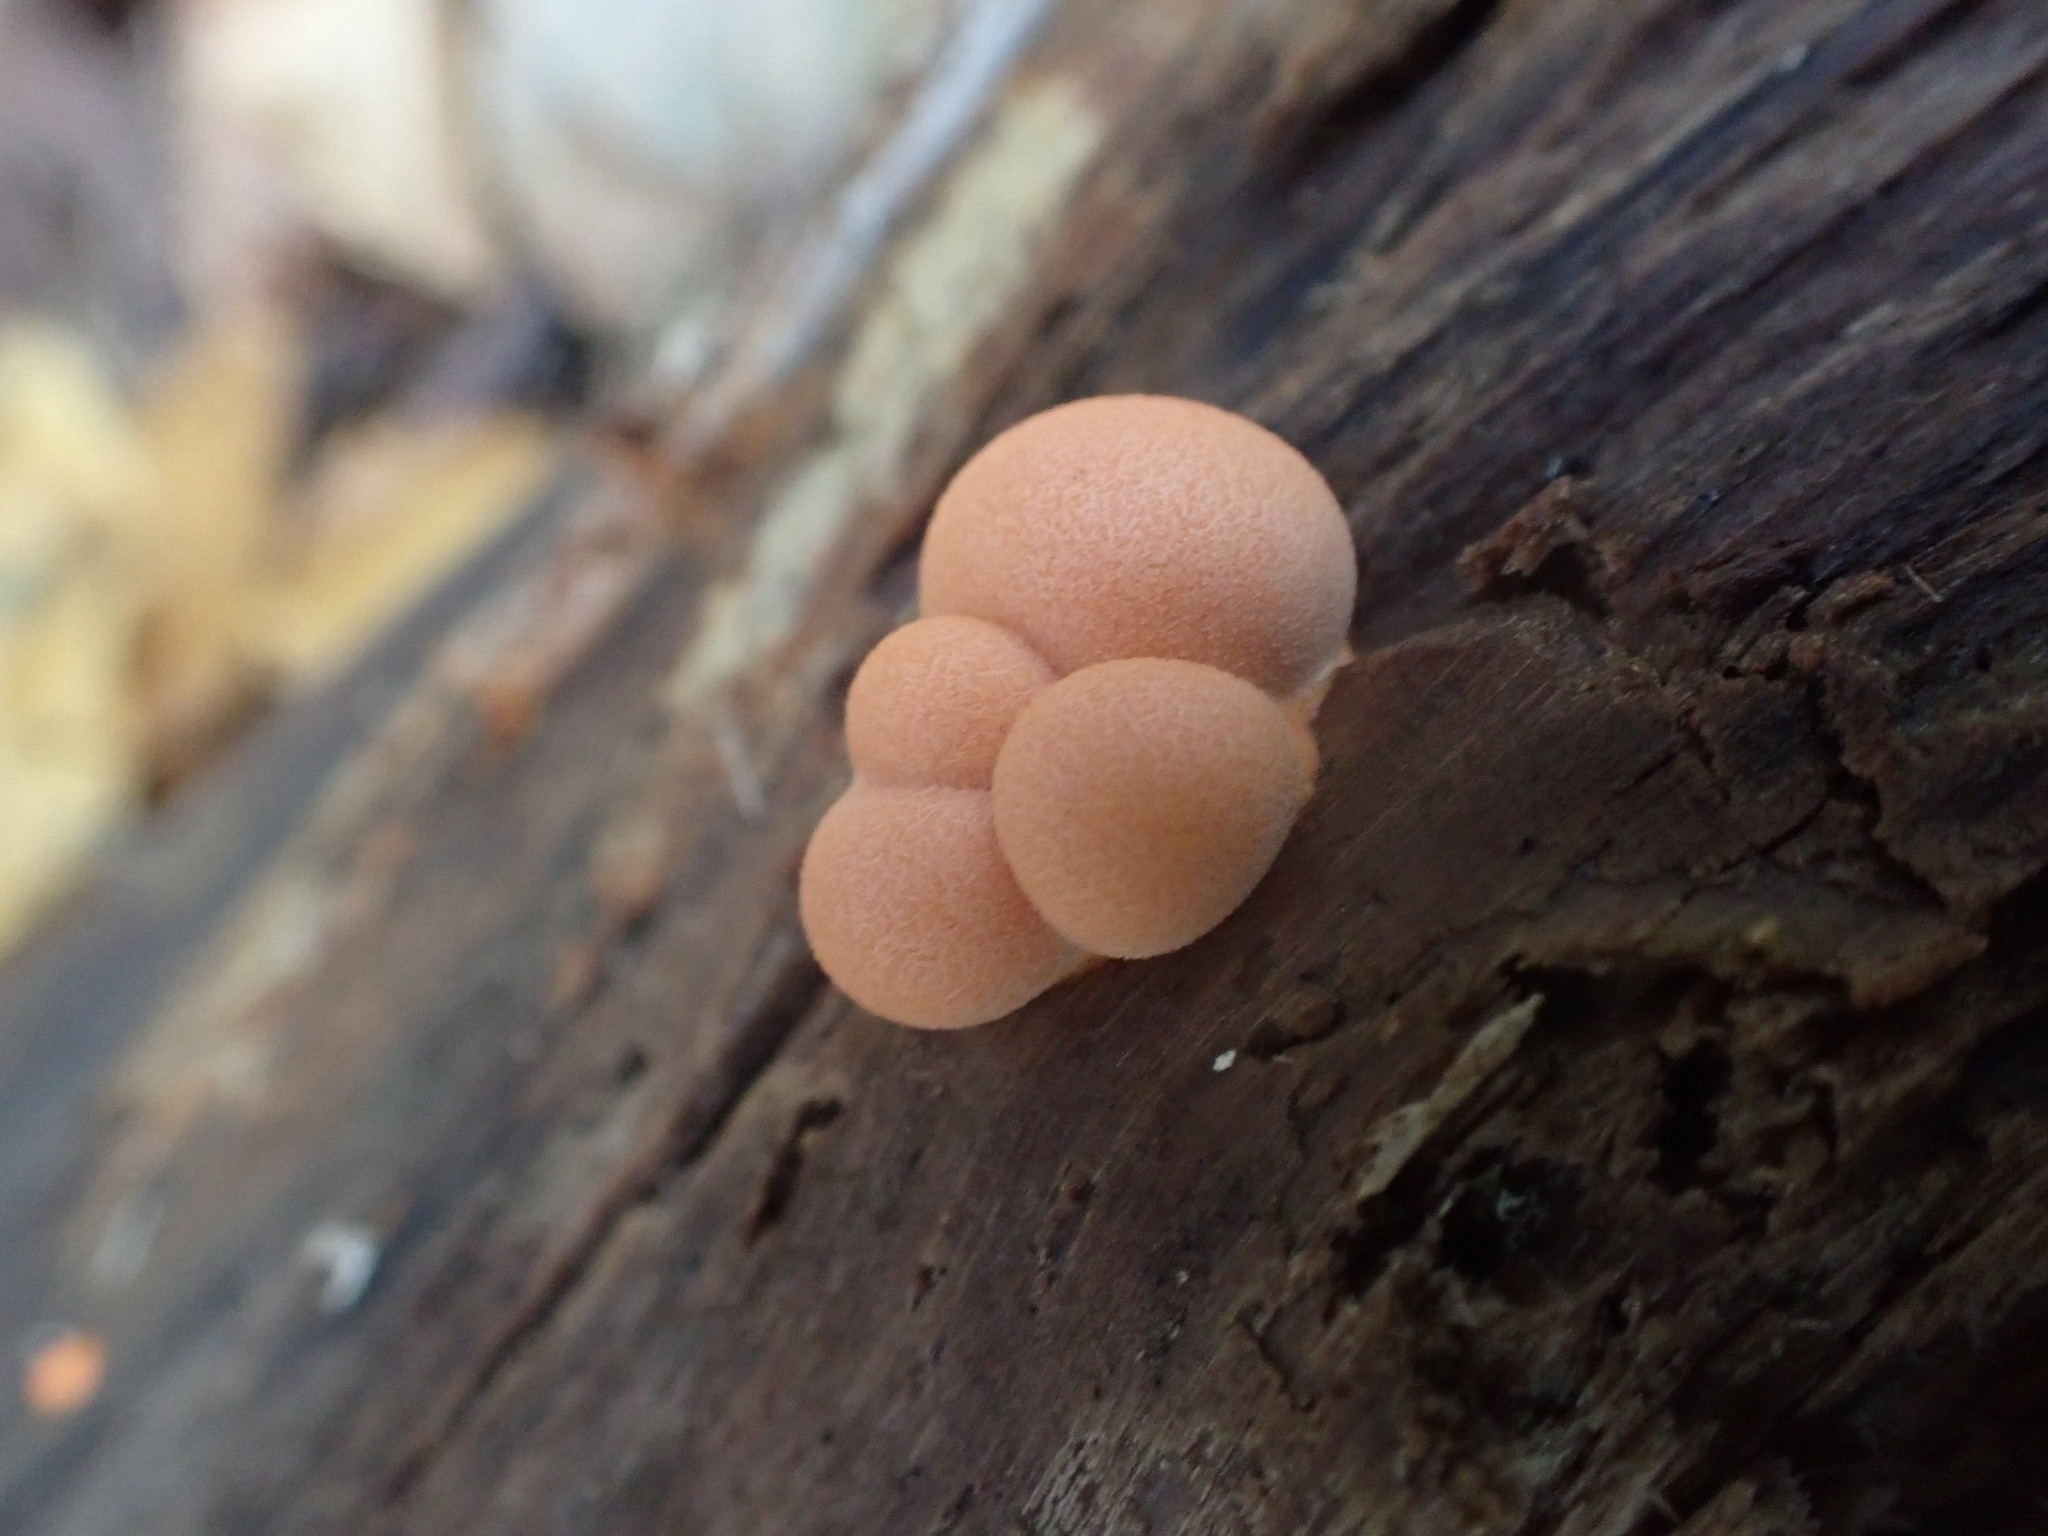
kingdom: Protozoa
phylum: Mycetozoa
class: Myxomycetes
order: Cribrariales
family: Tubiferaceae
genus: Lycogala
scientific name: Lycogala epidendrum
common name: Wolf's milk
